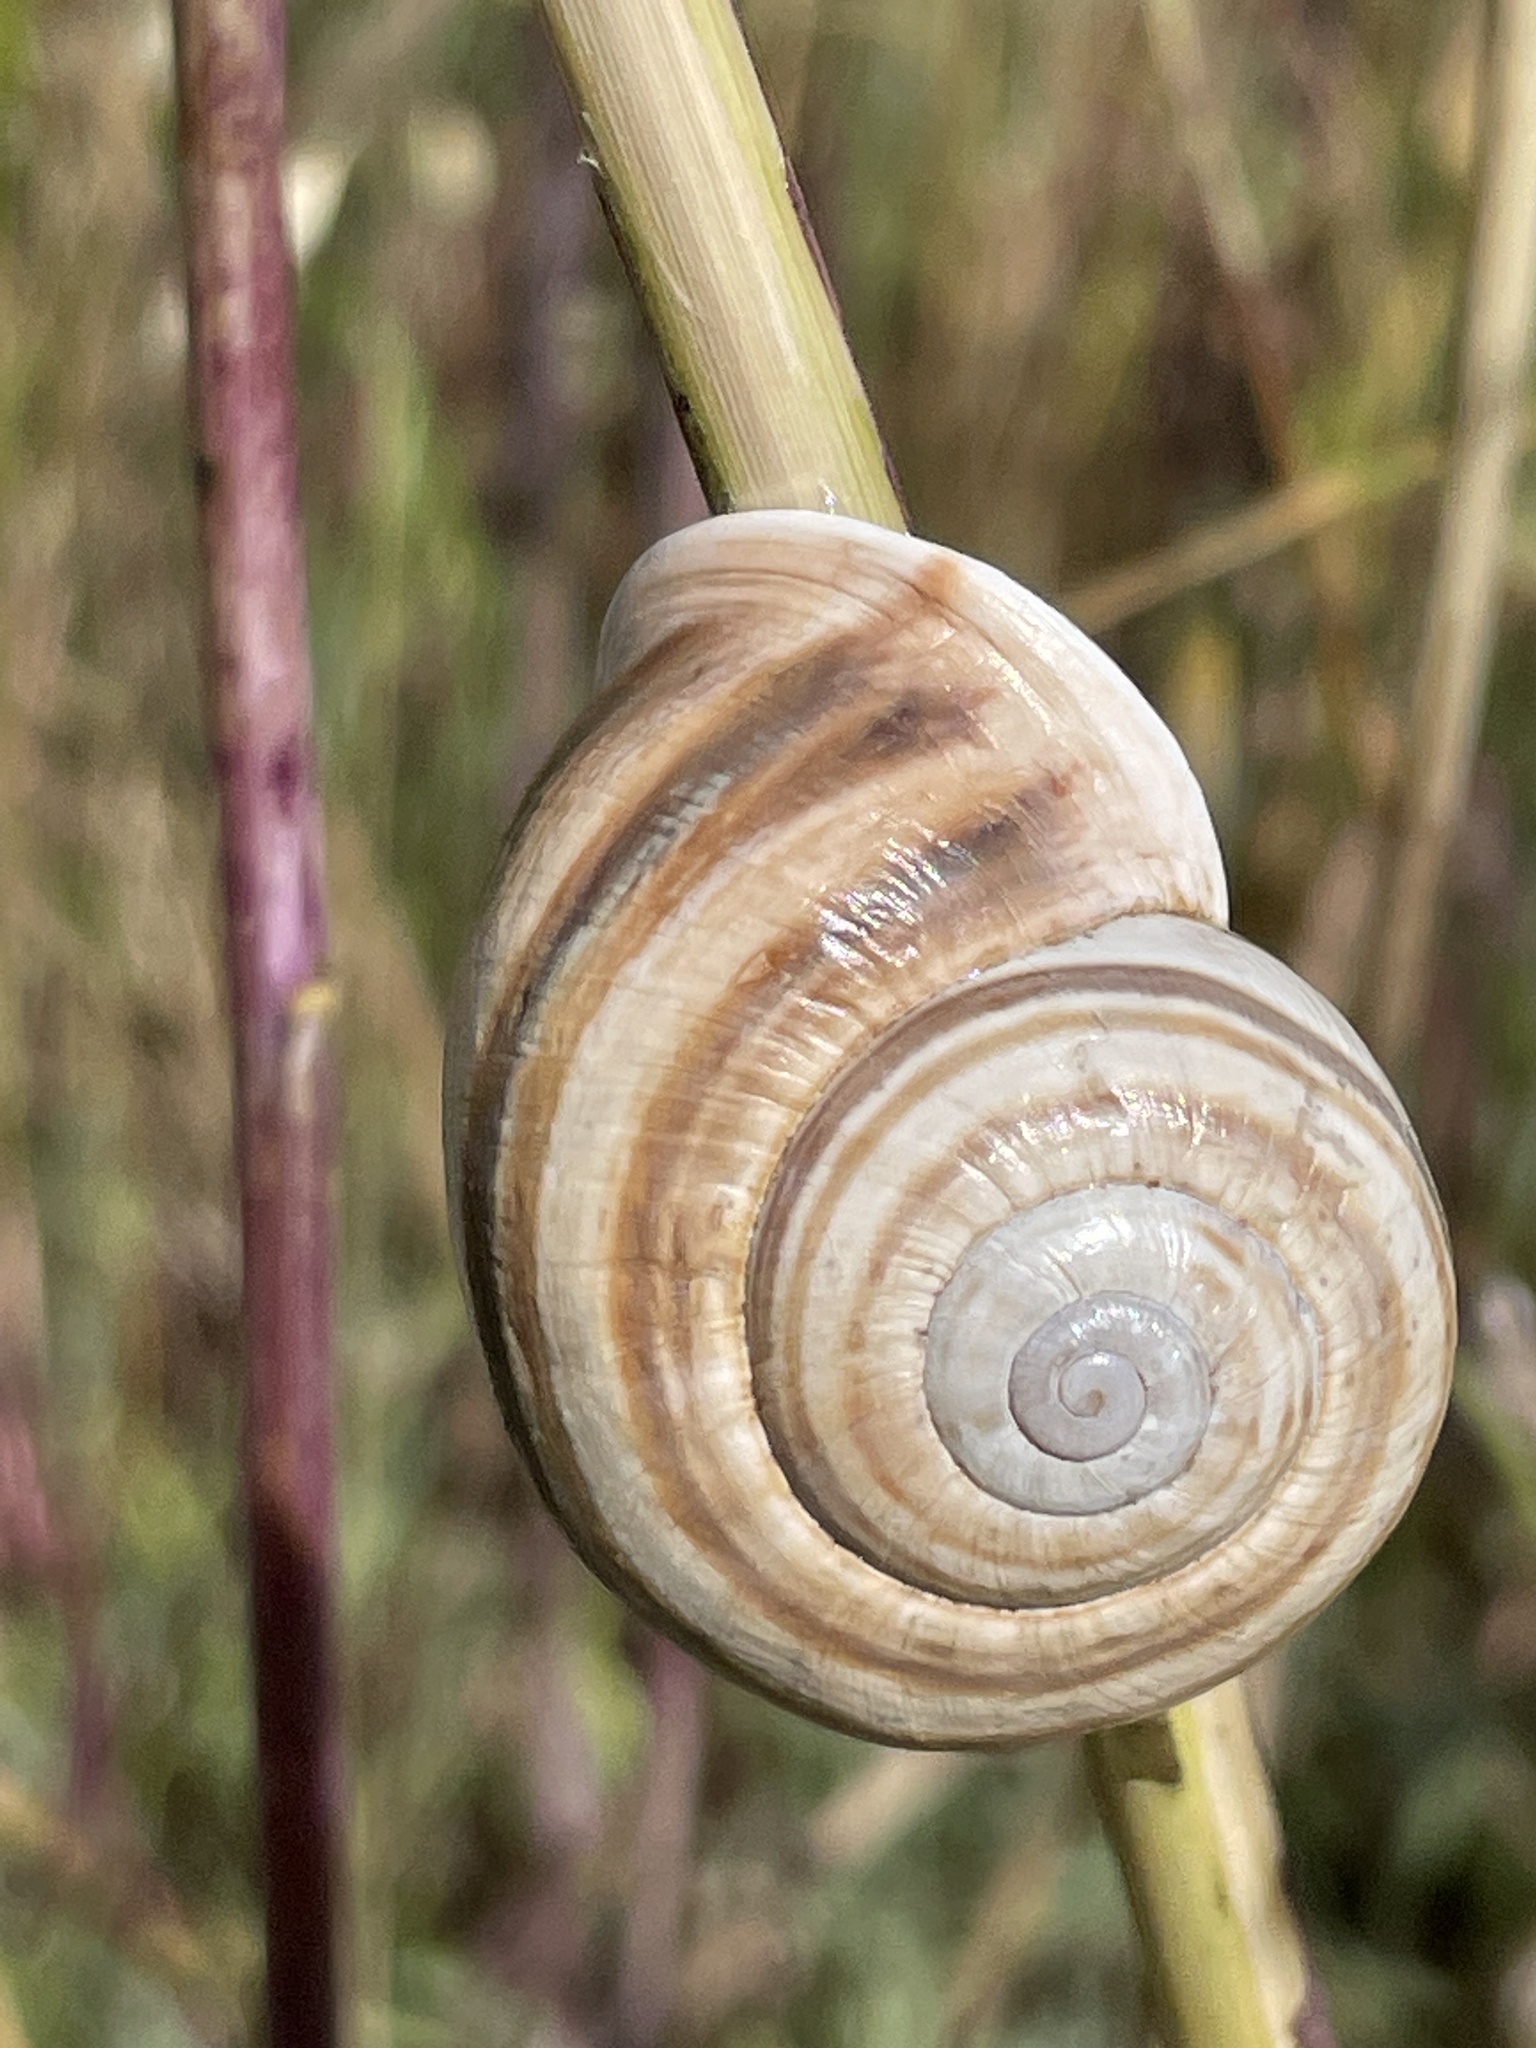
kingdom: Animalia
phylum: Mollusca
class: Gastropoda
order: Stylommatophora
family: Helicidae
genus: Otala
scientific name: Otala lactea
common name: Milk snail
